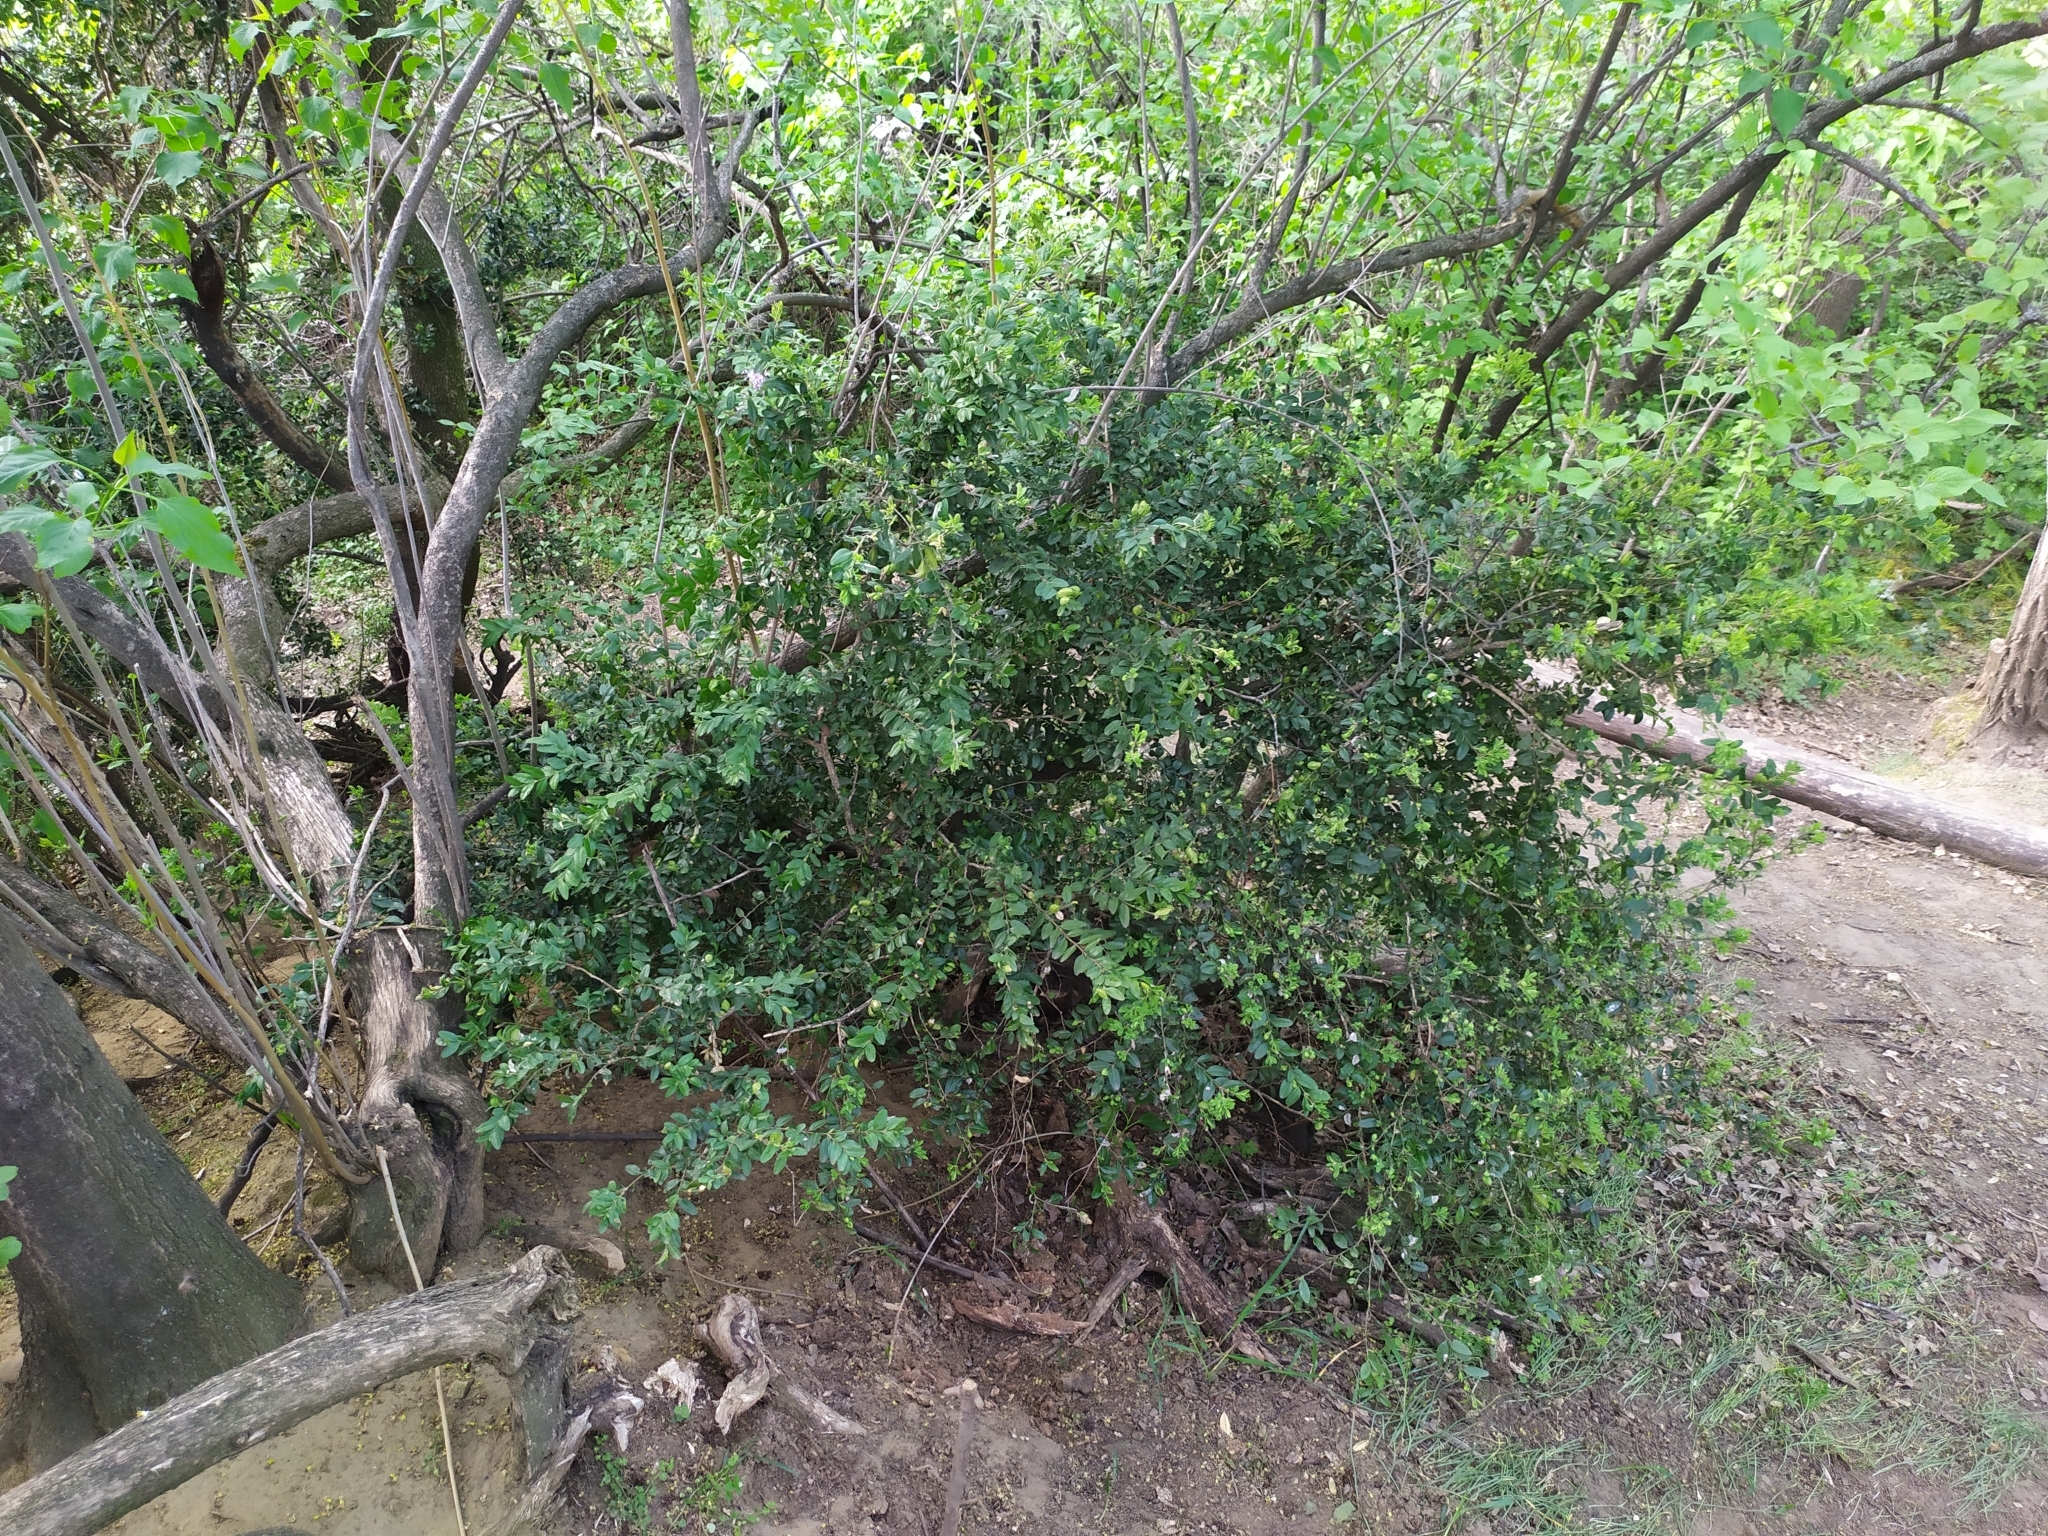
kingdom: Plantae
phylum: Tracheophyta
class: Magnoliopsida
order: Buxales
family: Buxaceae
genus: Buxus
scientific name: Buxus sempervirens
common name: Box
